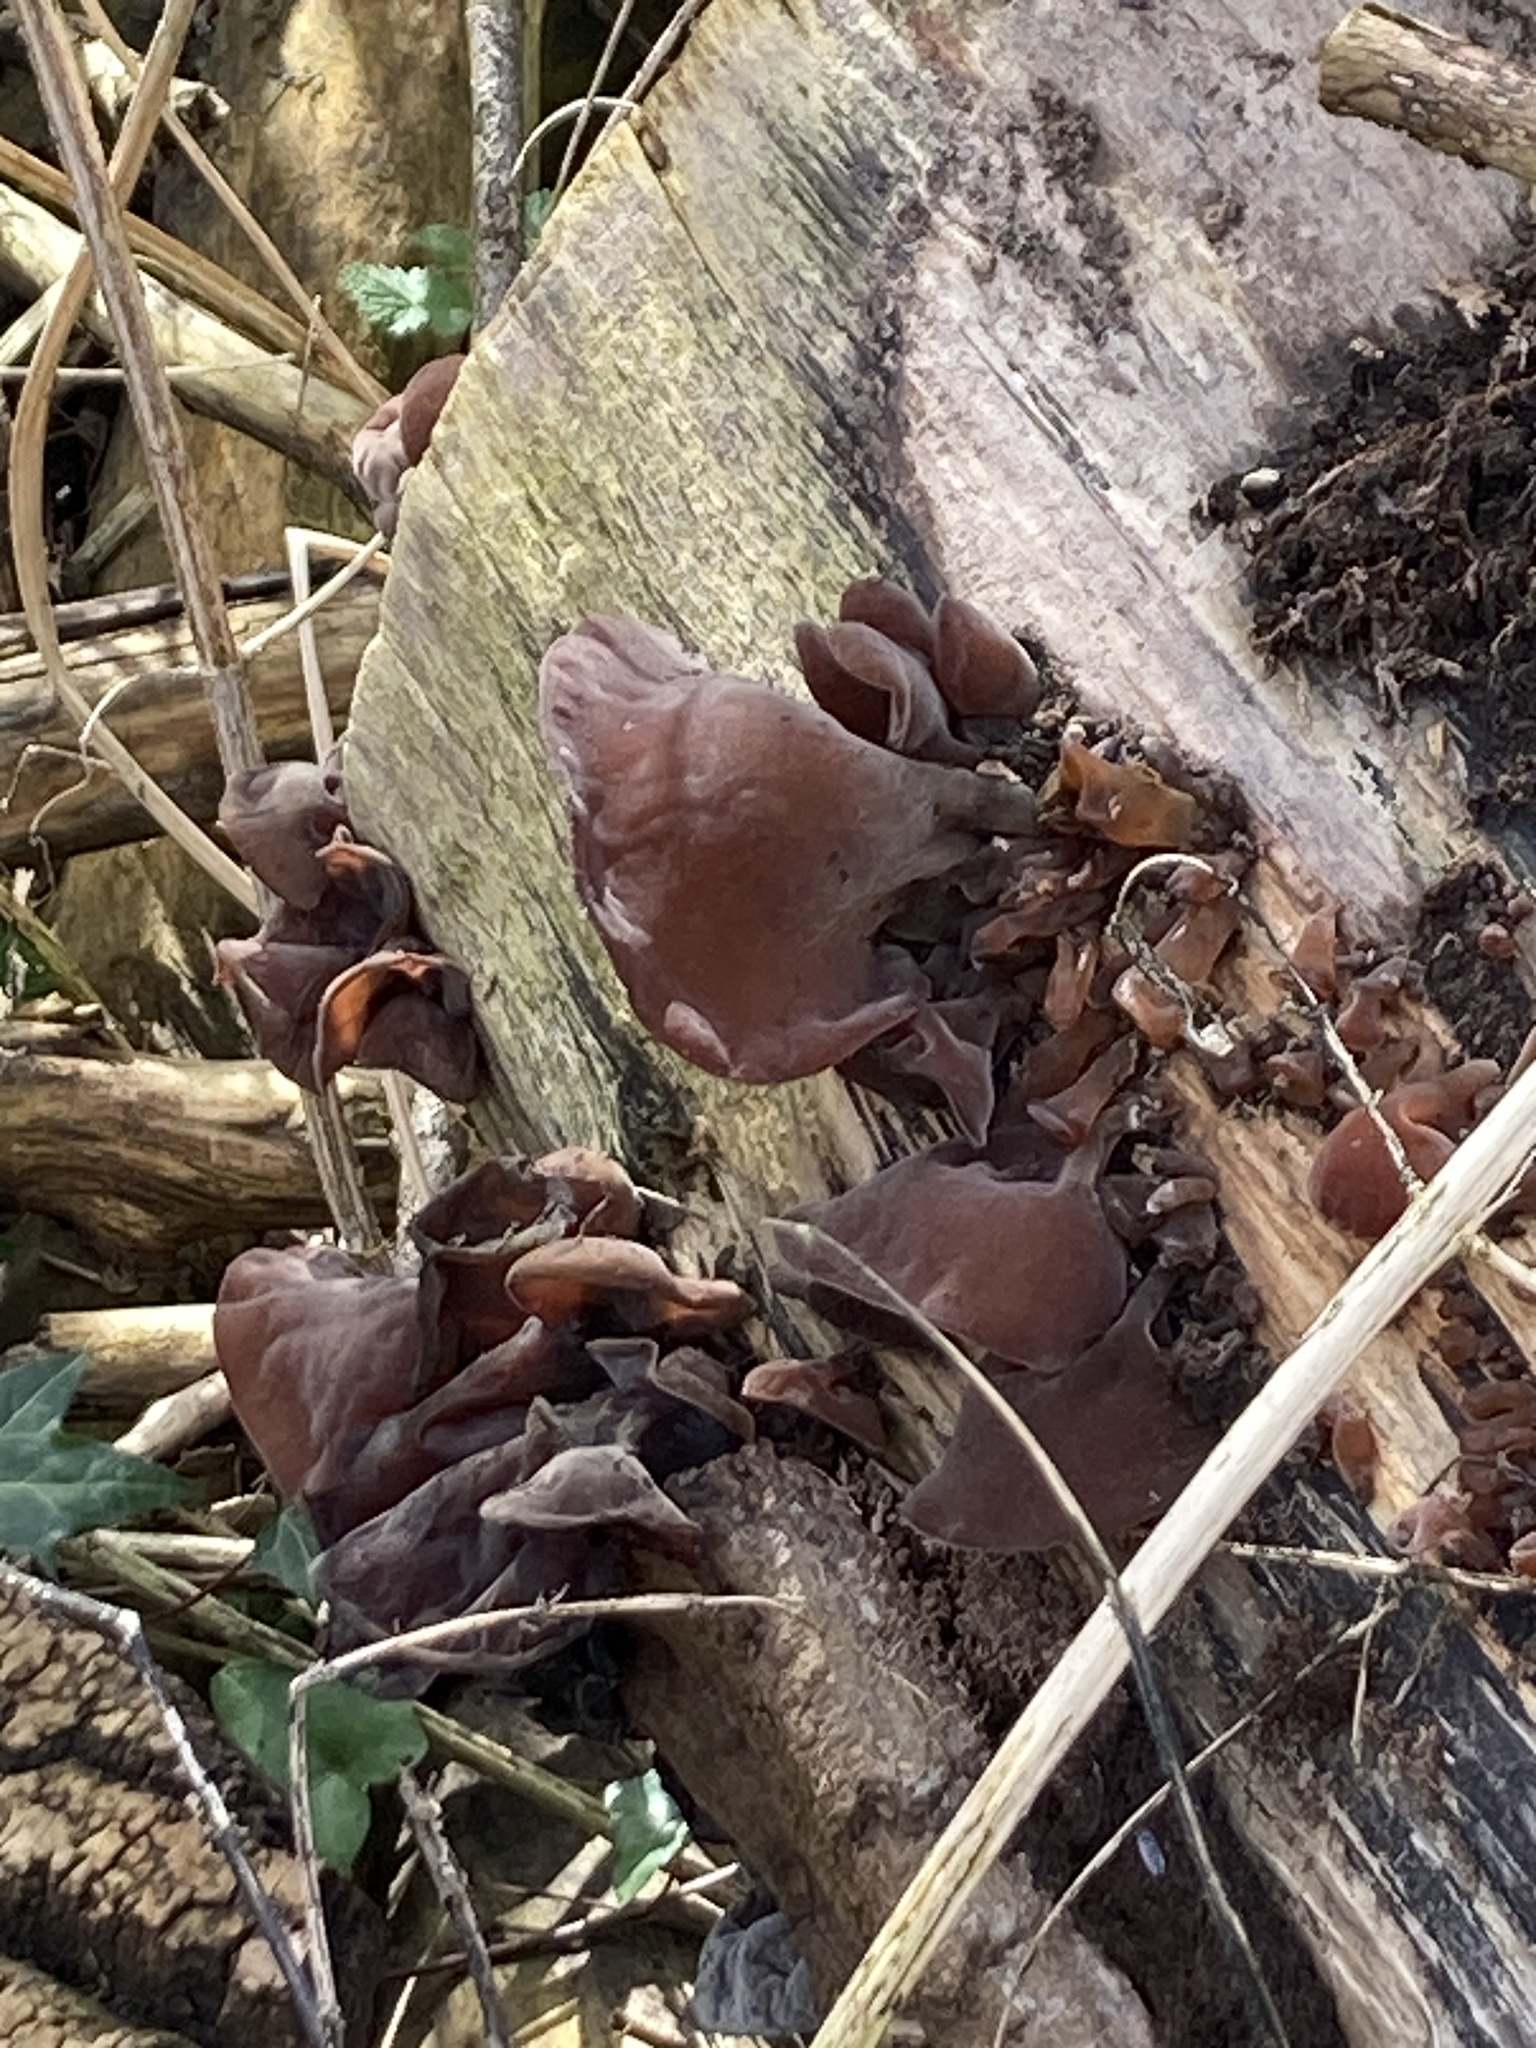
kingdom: Fungi
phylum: Basidiomycota
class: Agaricomycetes
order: Auriculariales
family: Auriculariaceae
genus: Auricularia
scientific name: Auricularia auricula-judae
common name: Jelly ear
